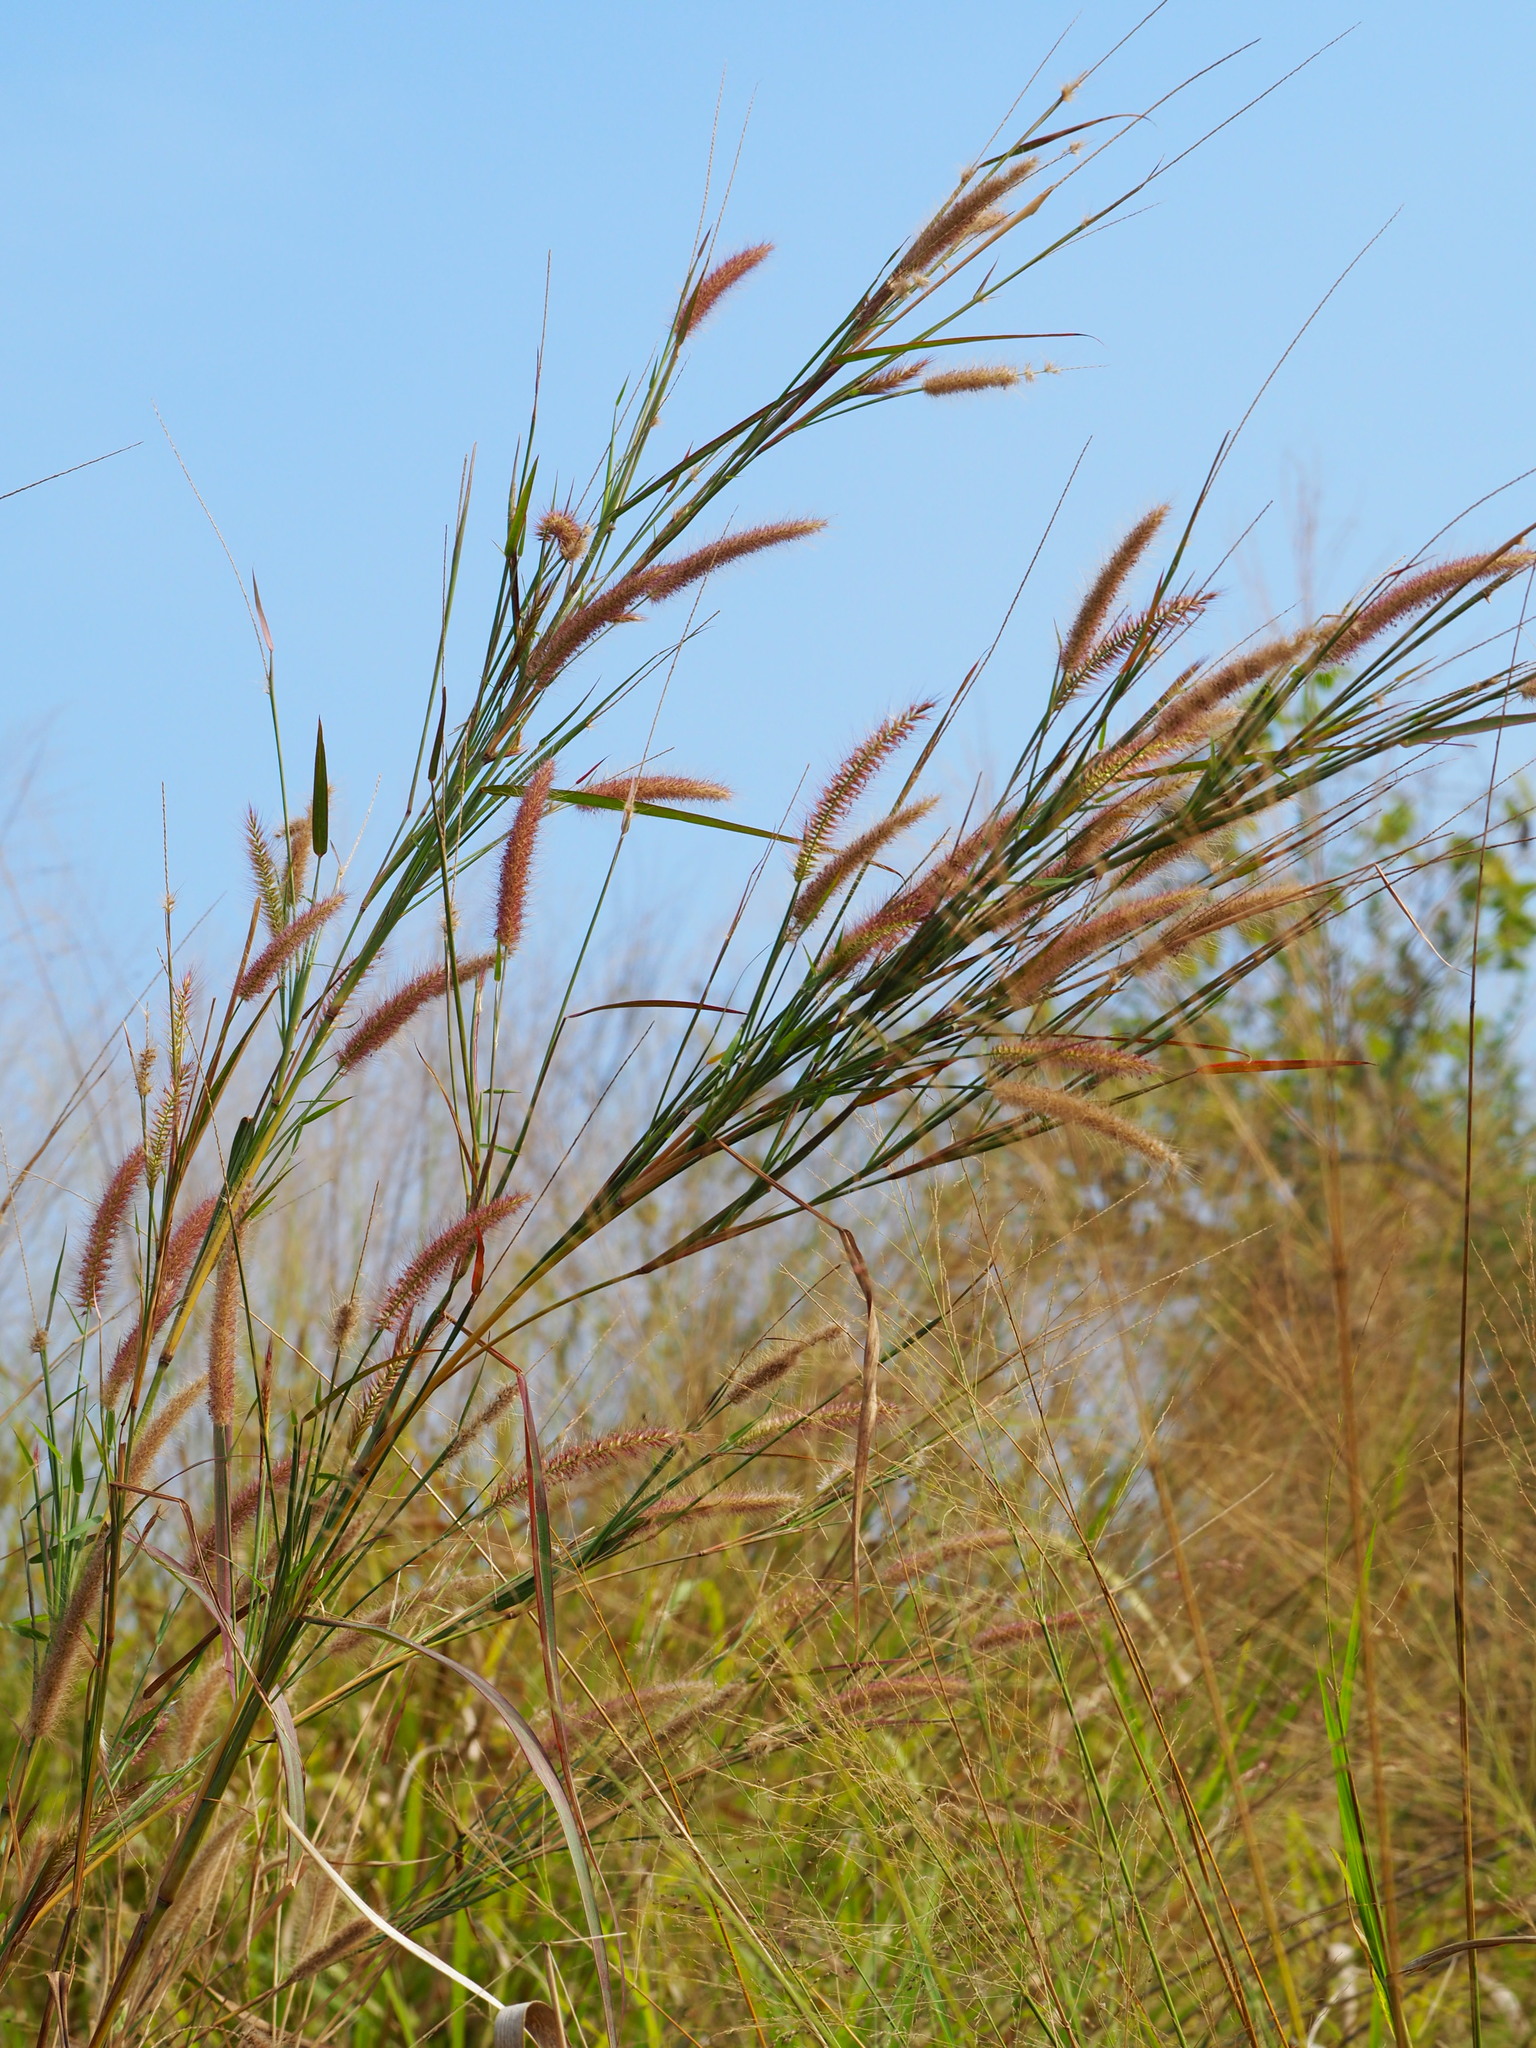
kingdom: Plantae
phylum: Tracheophyta
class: Liliopsida
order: Poales
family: Poaceae
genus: Cenchrus
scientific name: Cenchrus setosus
